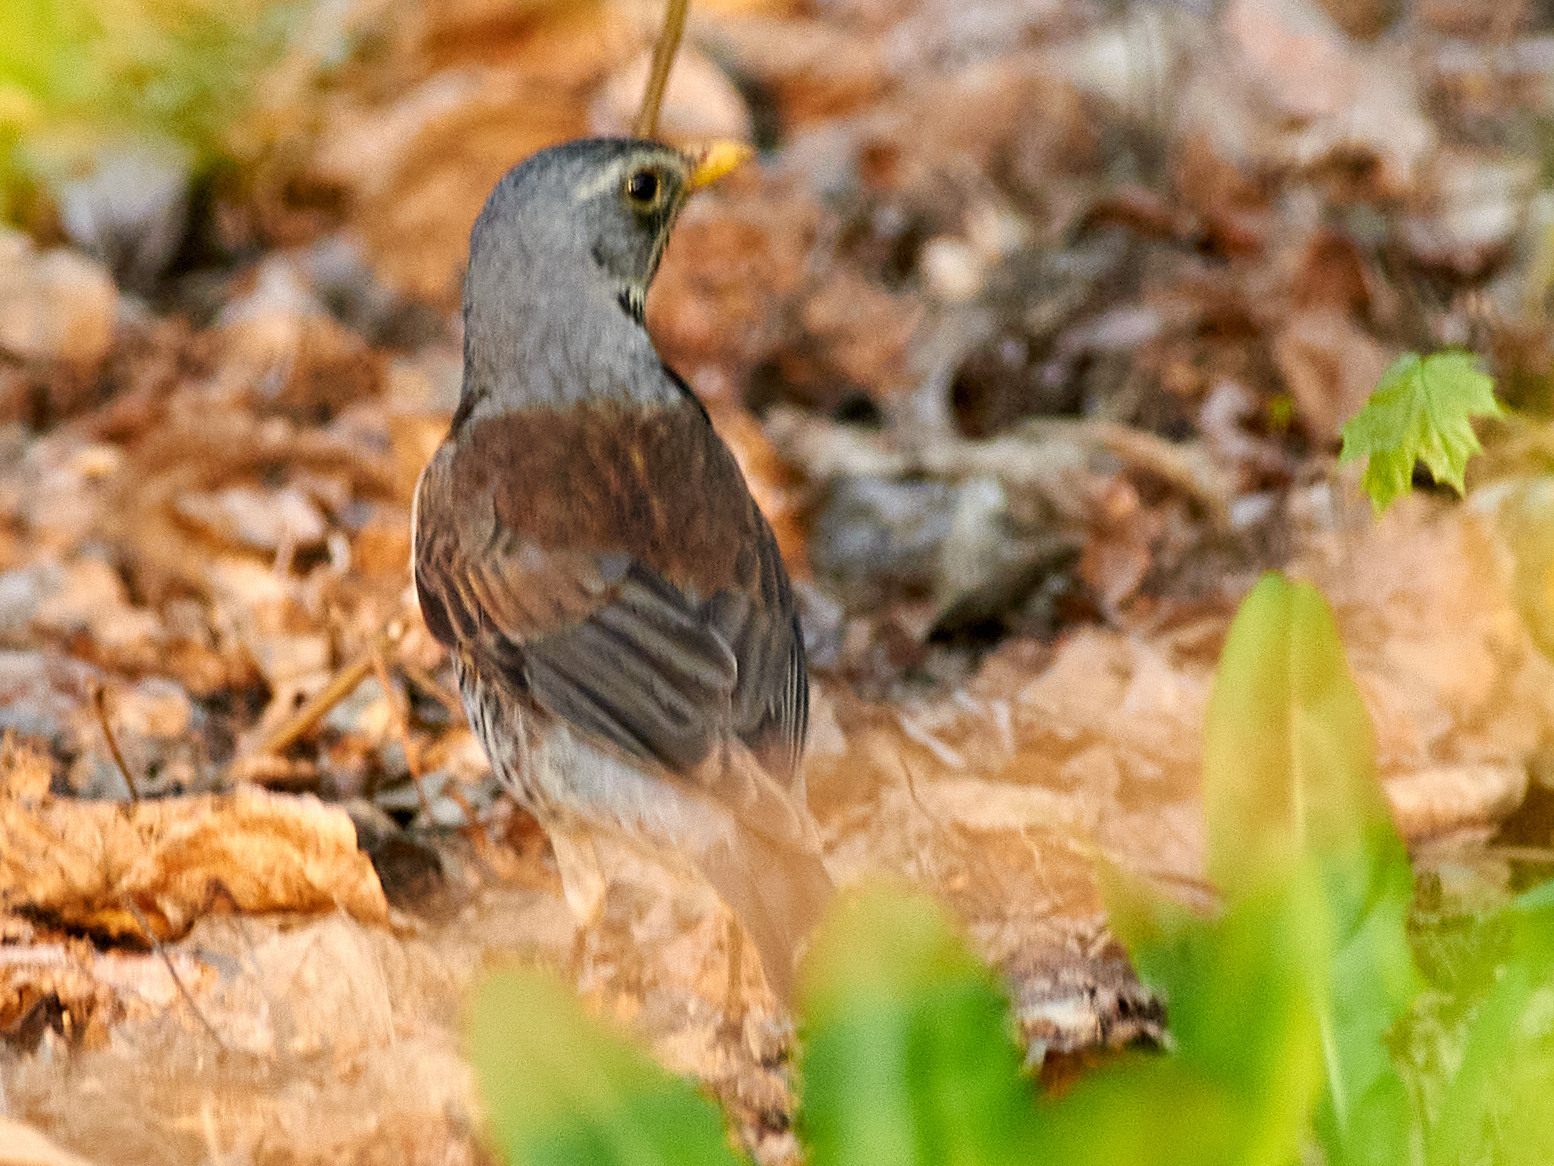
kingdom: Animalia
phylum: Chordata
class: Aves
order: Passeriformes
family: Turdidae
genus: Turdus
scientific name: Turdus pilaris
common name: Fieldfare
